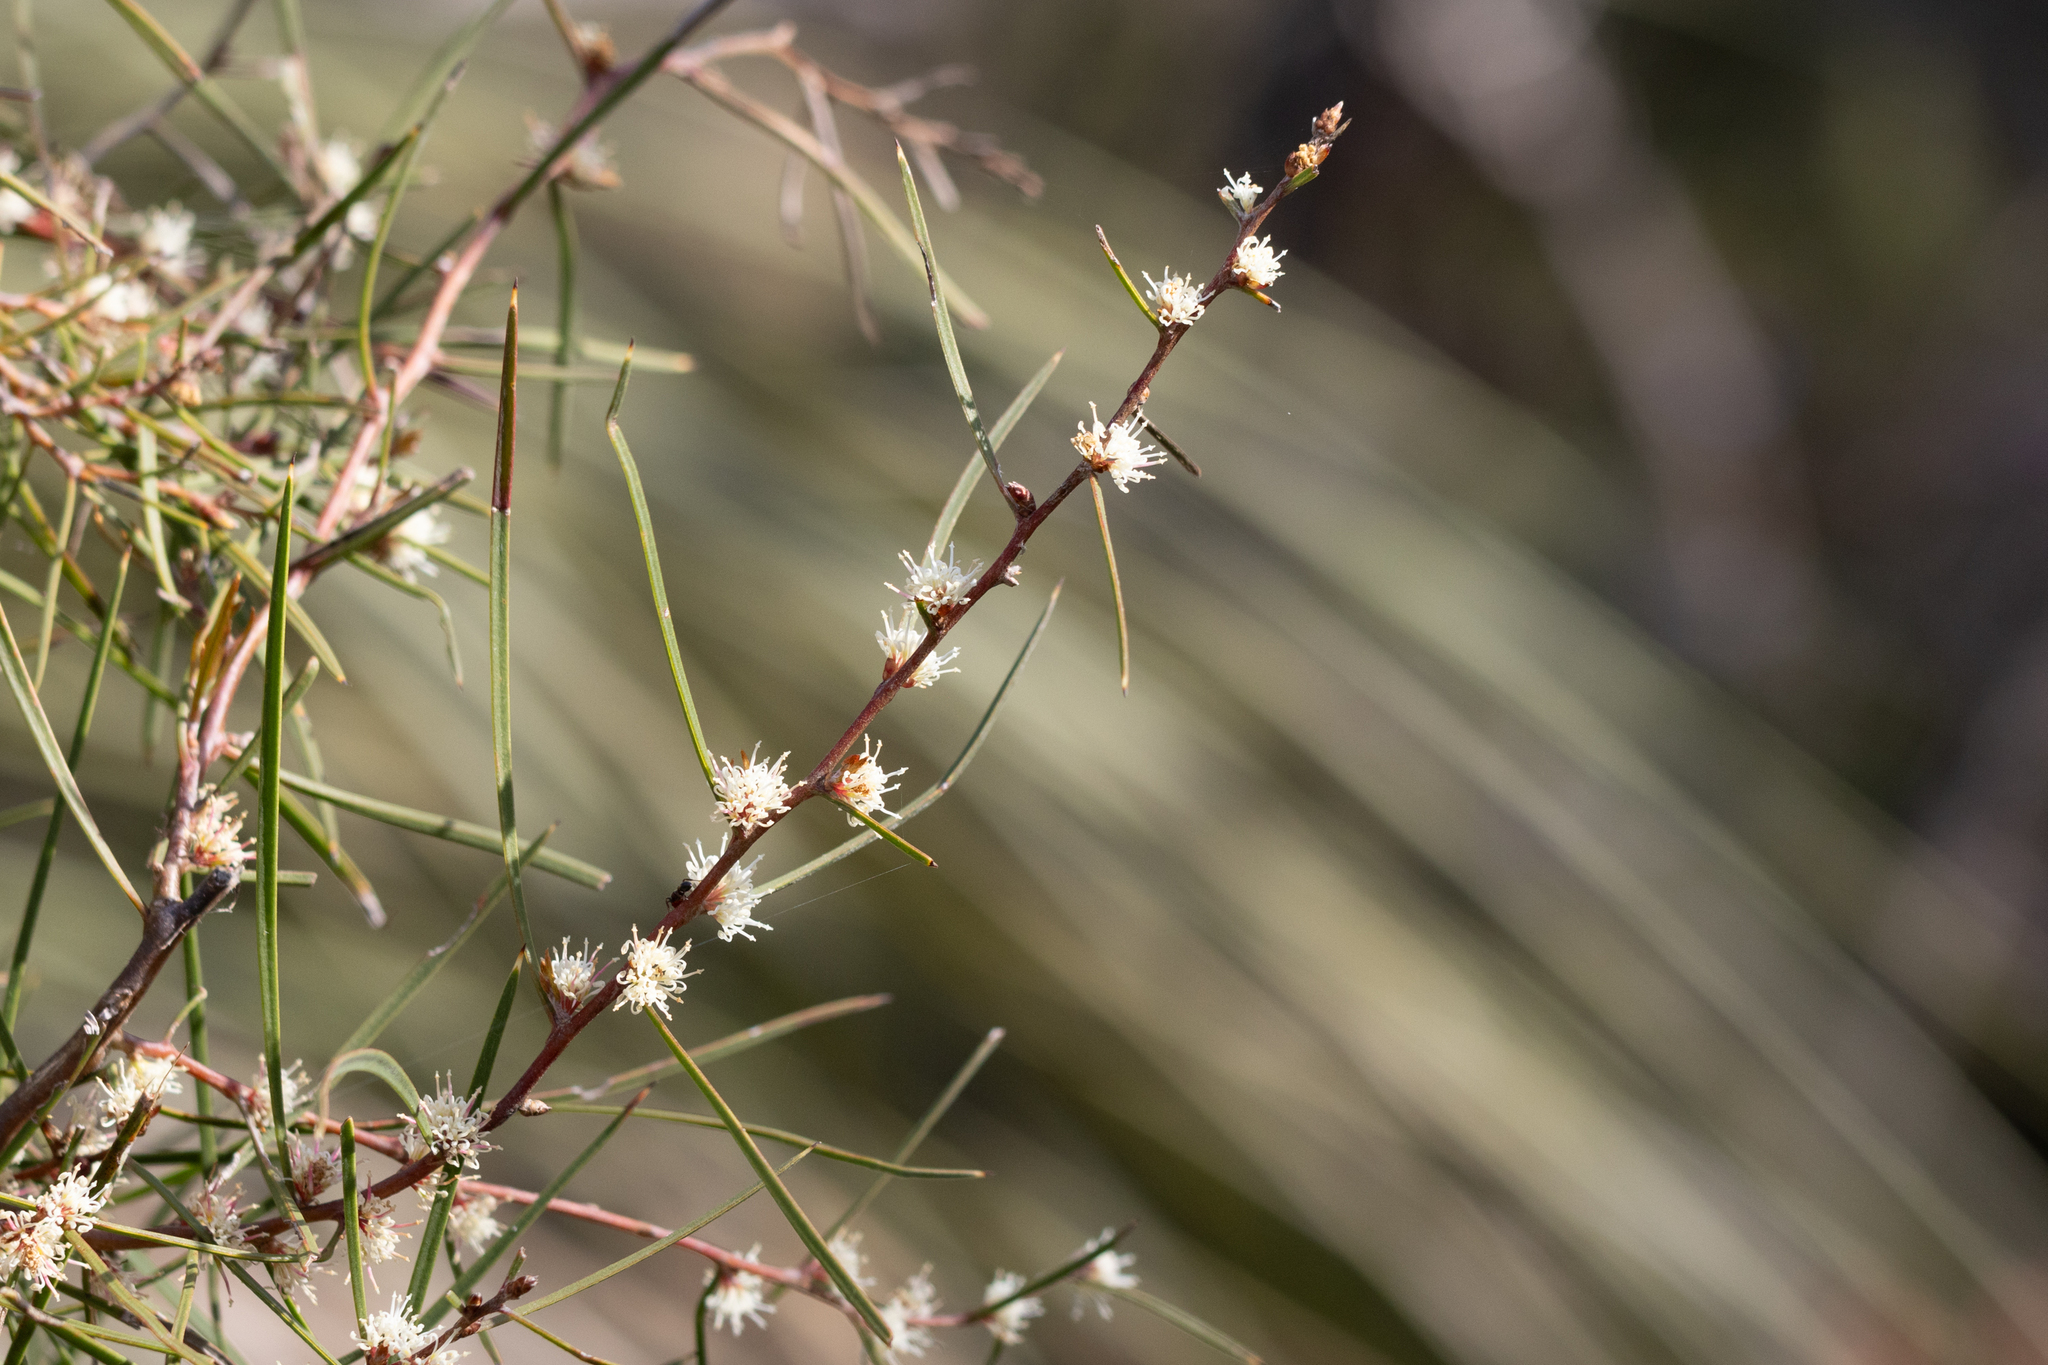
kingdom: Plantae
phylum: Tracheophyta
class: Magnoliopsida
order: Proteales
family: Proteaceae
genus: Hakea
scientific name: Hakea carinata
